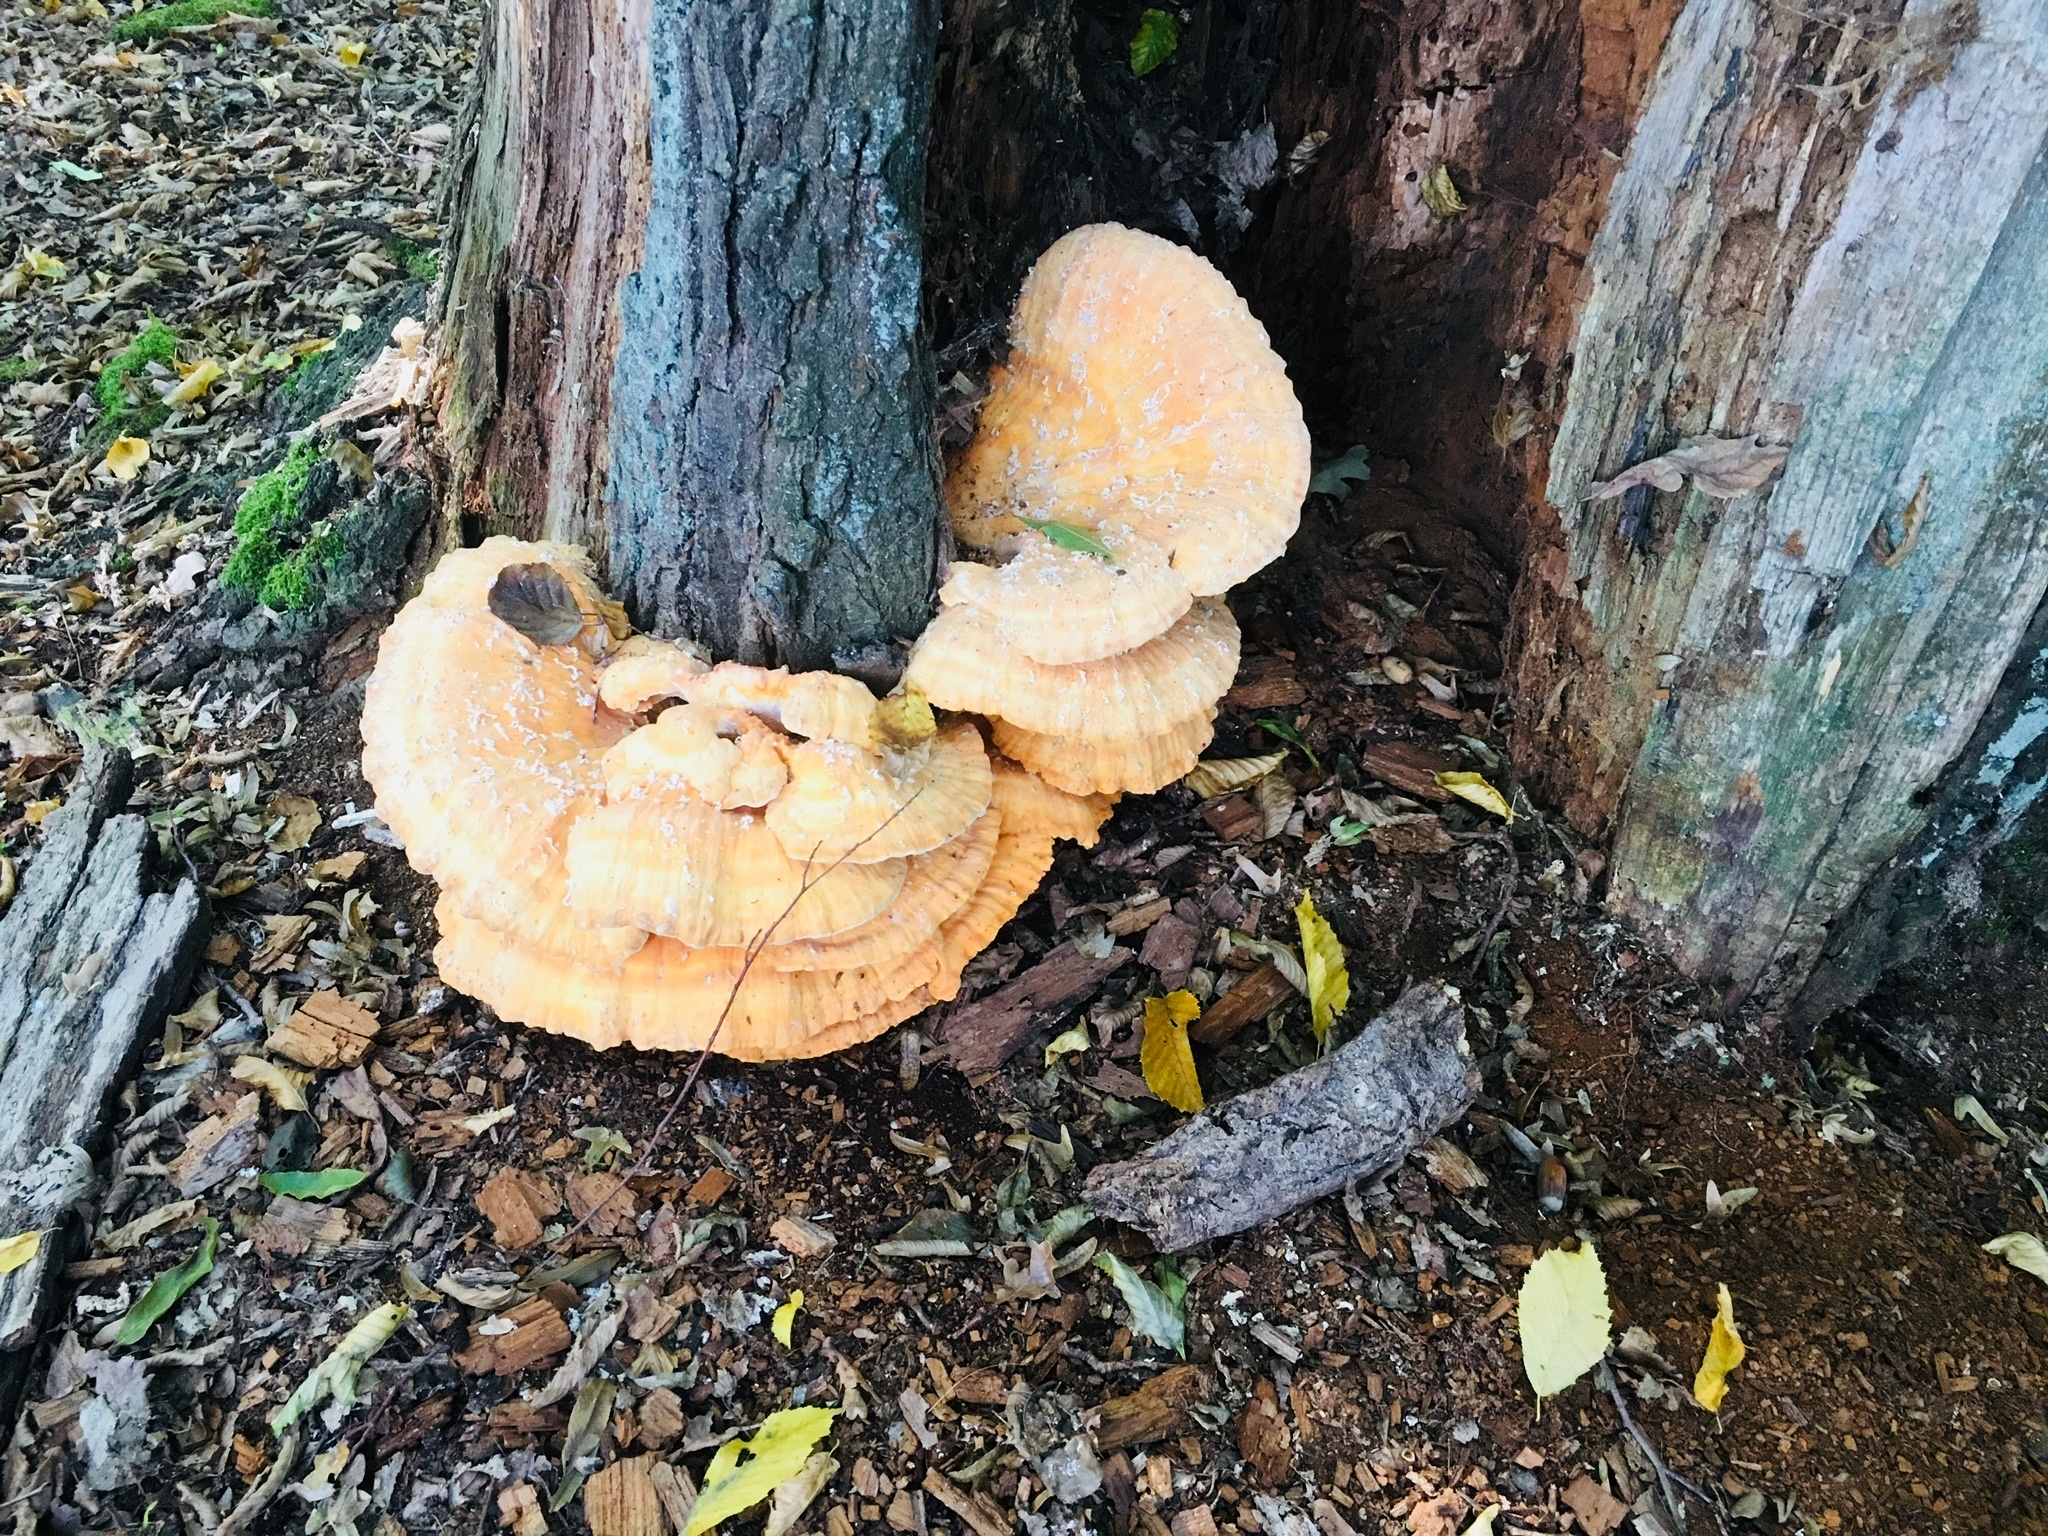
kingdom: Fungi
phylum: Basidiomycota
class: Agaricomycetes
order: Polyporales
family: Laetiporaceae
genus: Laetiporus
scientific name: Laetiporus sulphureus
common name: Chicken of the woods
